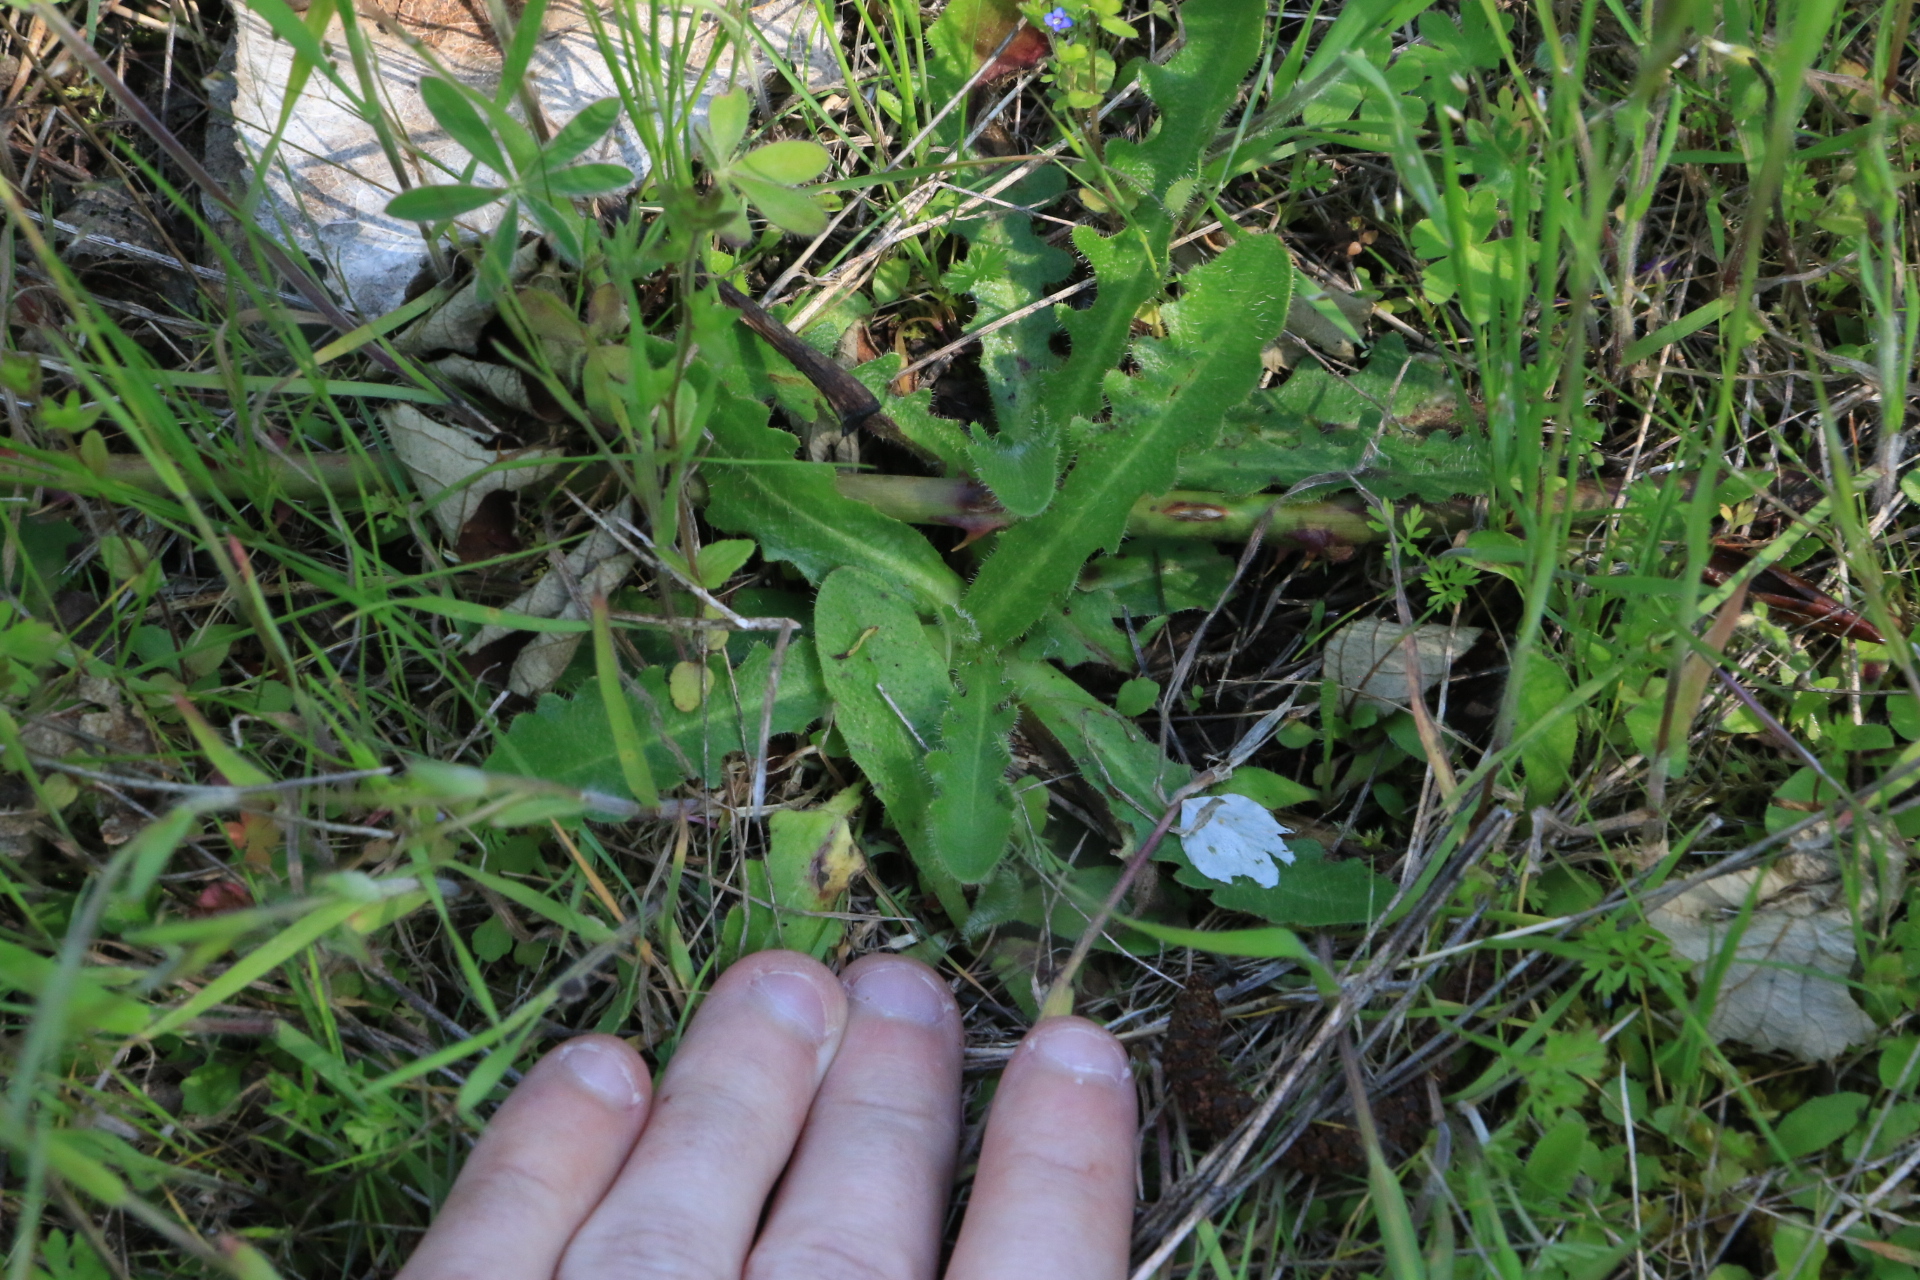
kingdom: Plantae
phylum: Tracheophyta
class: Magnoliopsida
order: Asterales
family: Asteraceae
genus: Hypochaeris
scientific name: Hypochaeris radicata
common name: Flatweed
